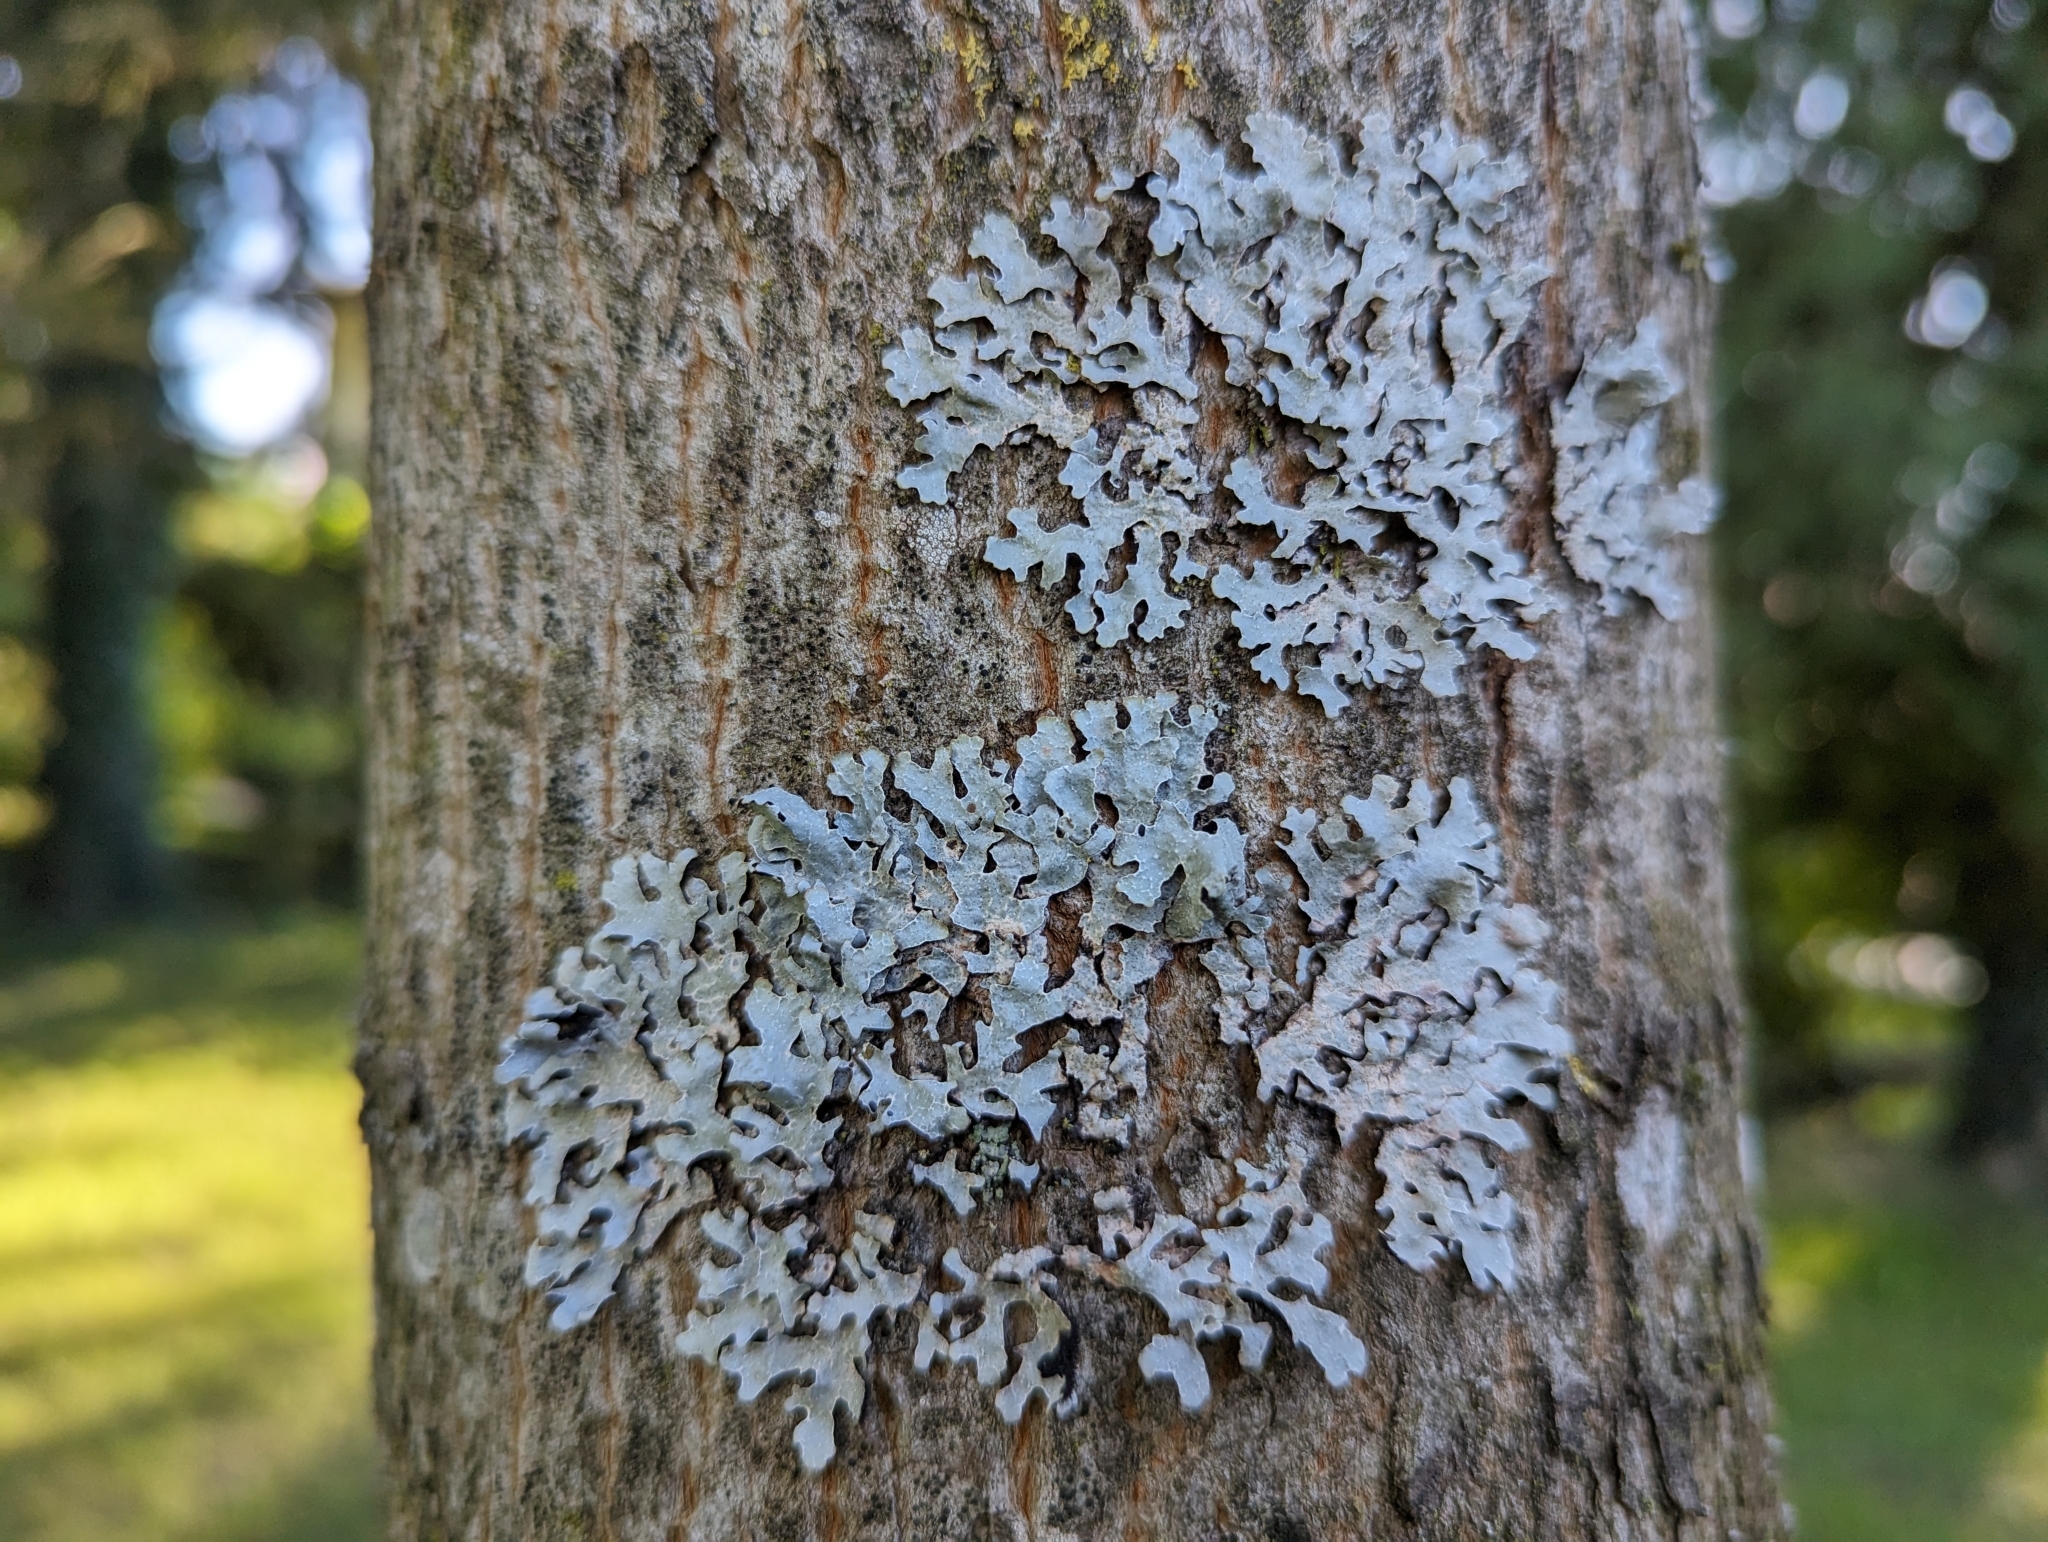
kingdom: Fungi
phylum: Ascomycota
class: Lecanoromycetes
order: Lecanorales
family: Parmeliaceae
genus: Parmelia
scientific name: Parmelia sulcata
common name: Netted shield lichen
